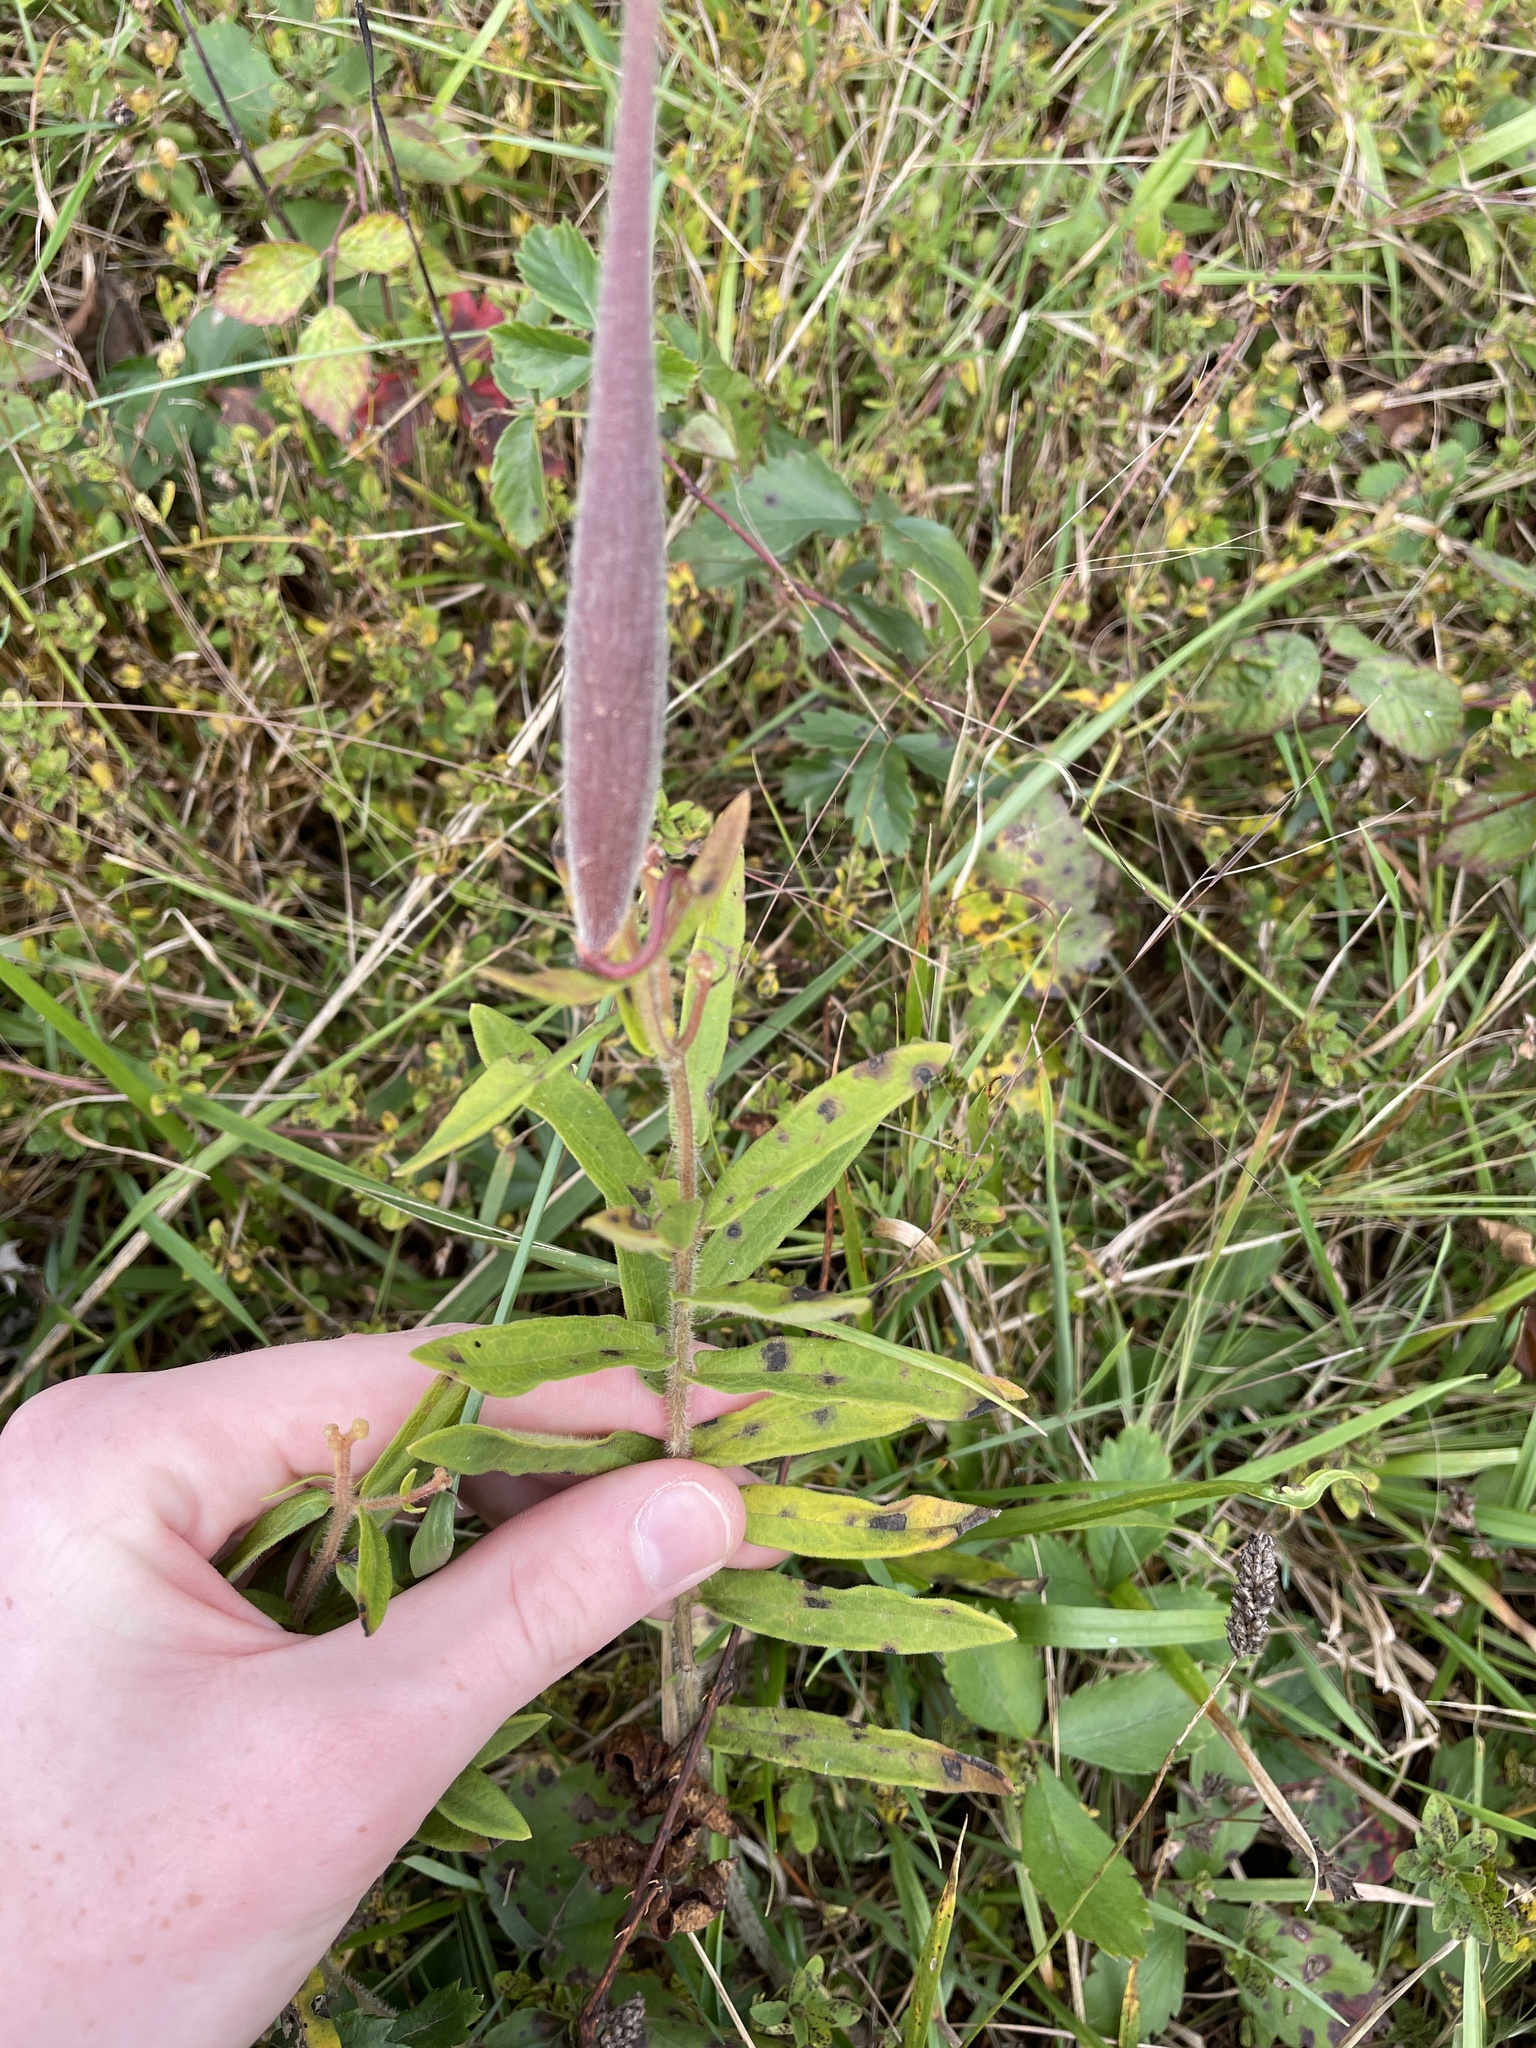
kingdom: Plantae
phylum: Tracheophyta
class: Magnoliopsida
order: Gentianales
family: Apocynaceae
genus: Asclepias
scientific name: Asclepias tuberosa
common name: Butterfly milkweed
